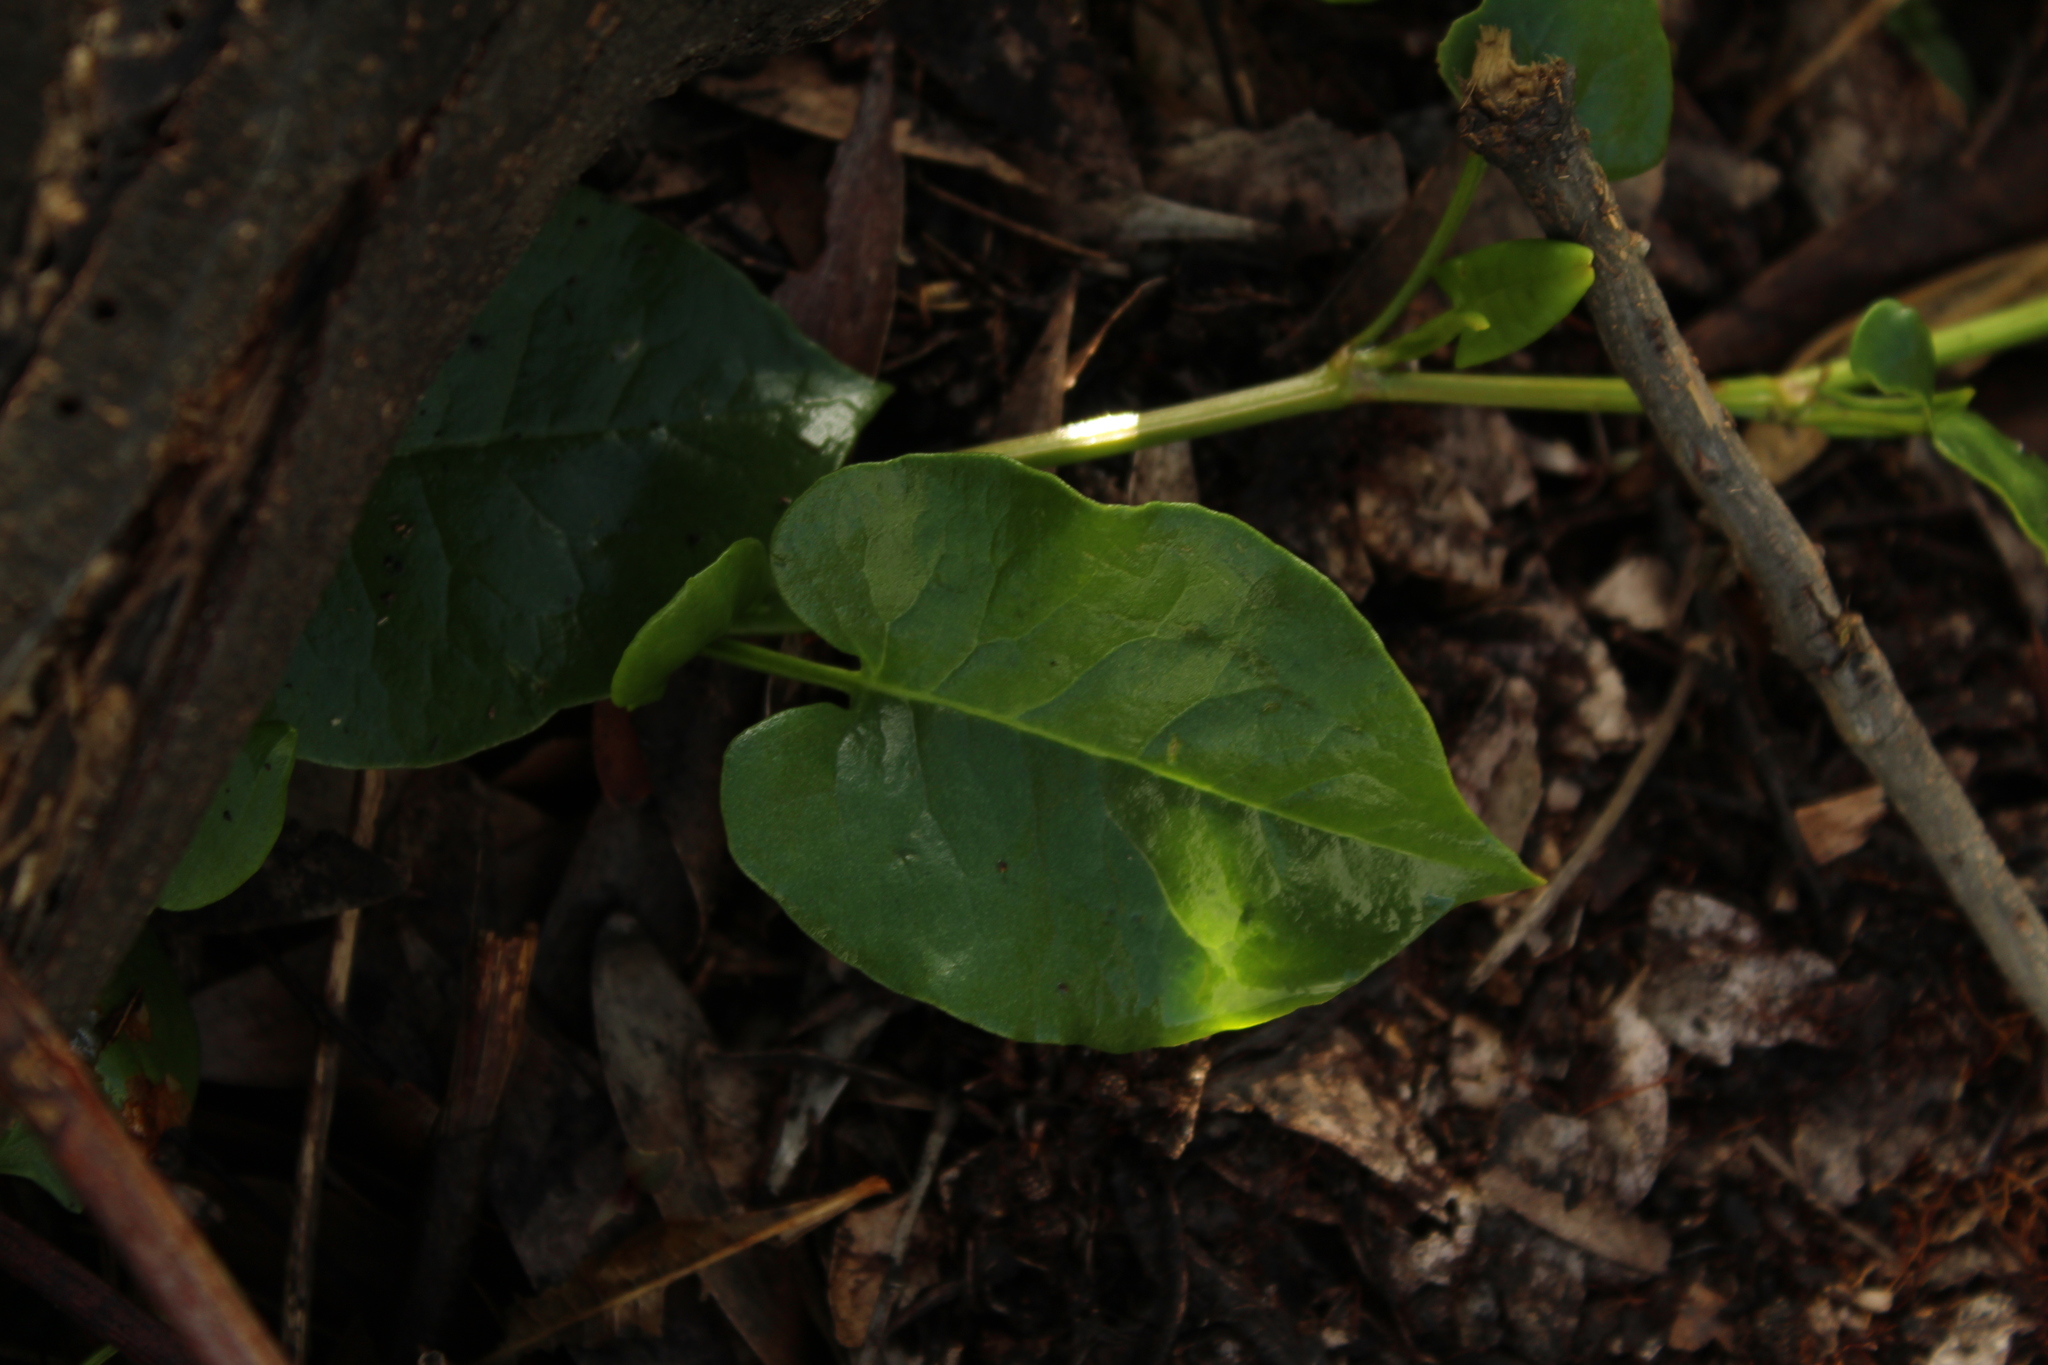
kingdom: Plantae
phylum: Tracheophyta
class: Magnoliopsida
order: Caryophyllales
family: Polygonaceae
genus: Muehlenbeckia
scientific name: Muehlenbeckia tamnifolia
